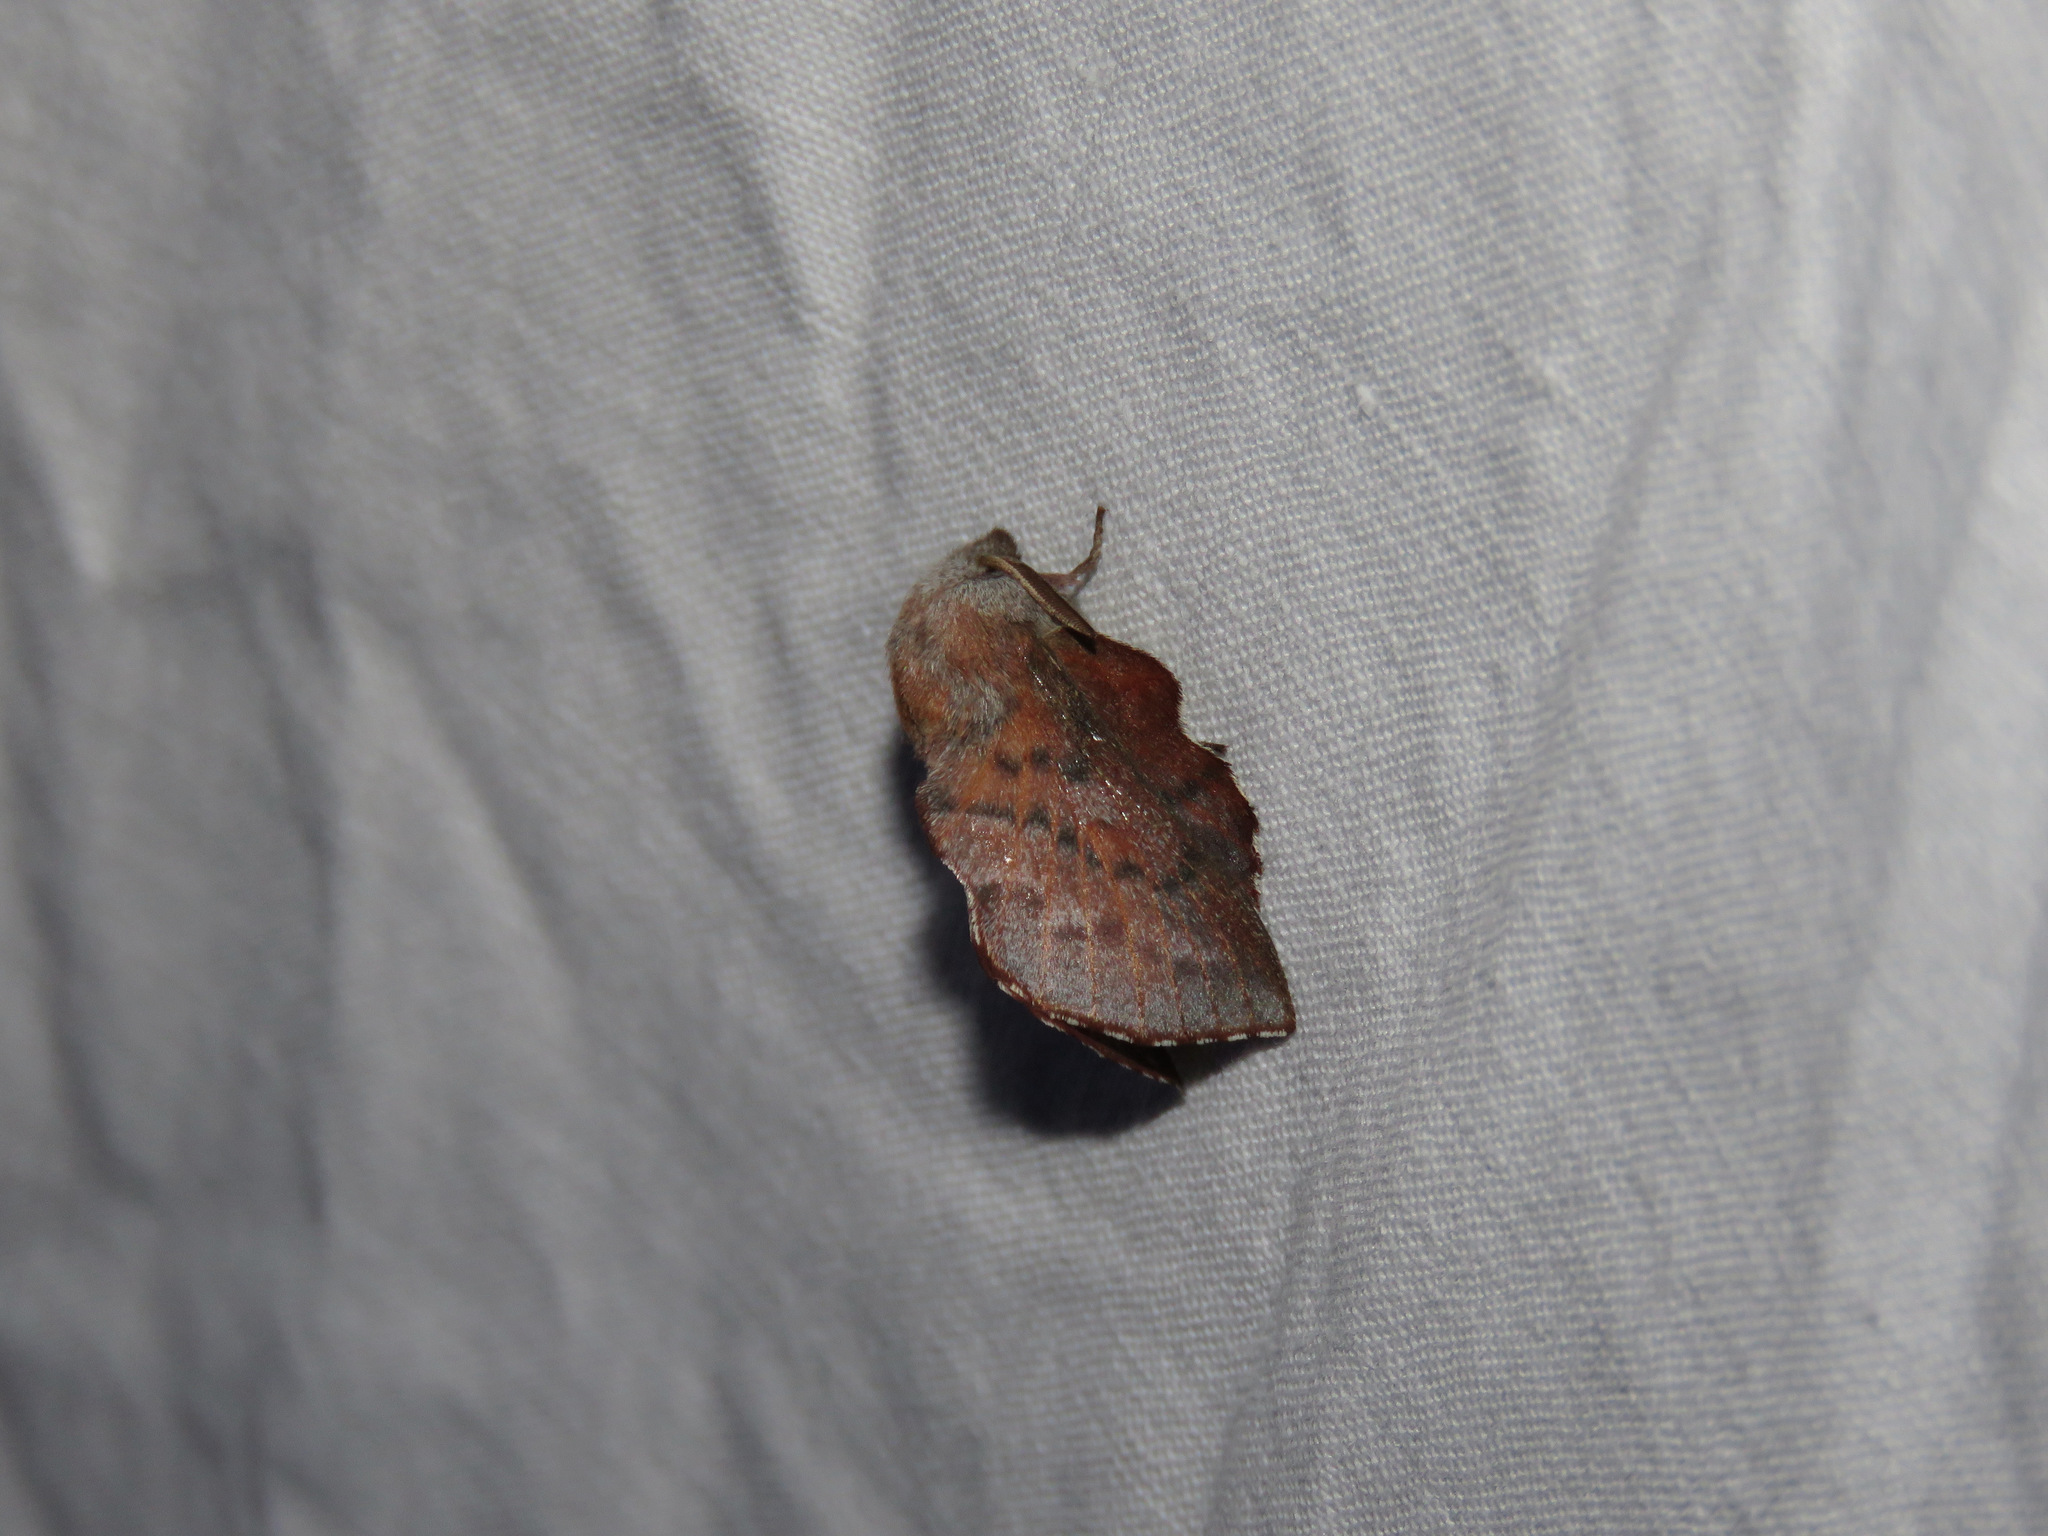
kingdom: Animalia
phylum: Arthropoda
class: Insecta
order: Lepidoptera
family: Lasiocampidae
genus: Phyllodesma
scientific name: Phyllodesma americana
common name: American lappet moth
